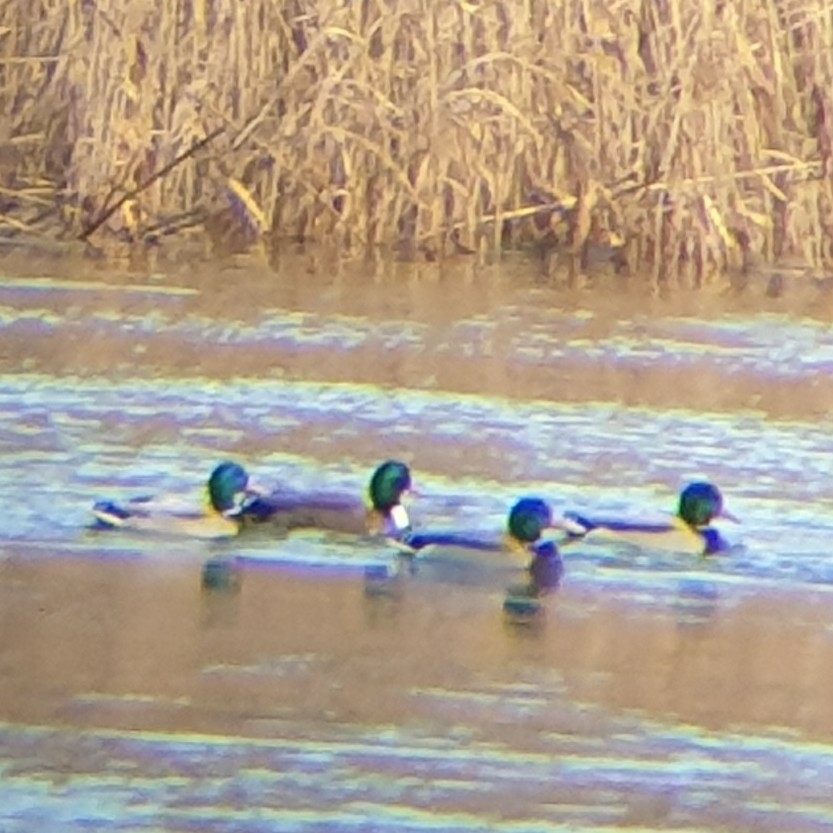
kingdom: Animalia
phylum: Chordata
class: Aves
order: Anseriformes
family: Anatidae
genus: Anas
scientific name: Anas platyrhynchos
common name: Mallard
